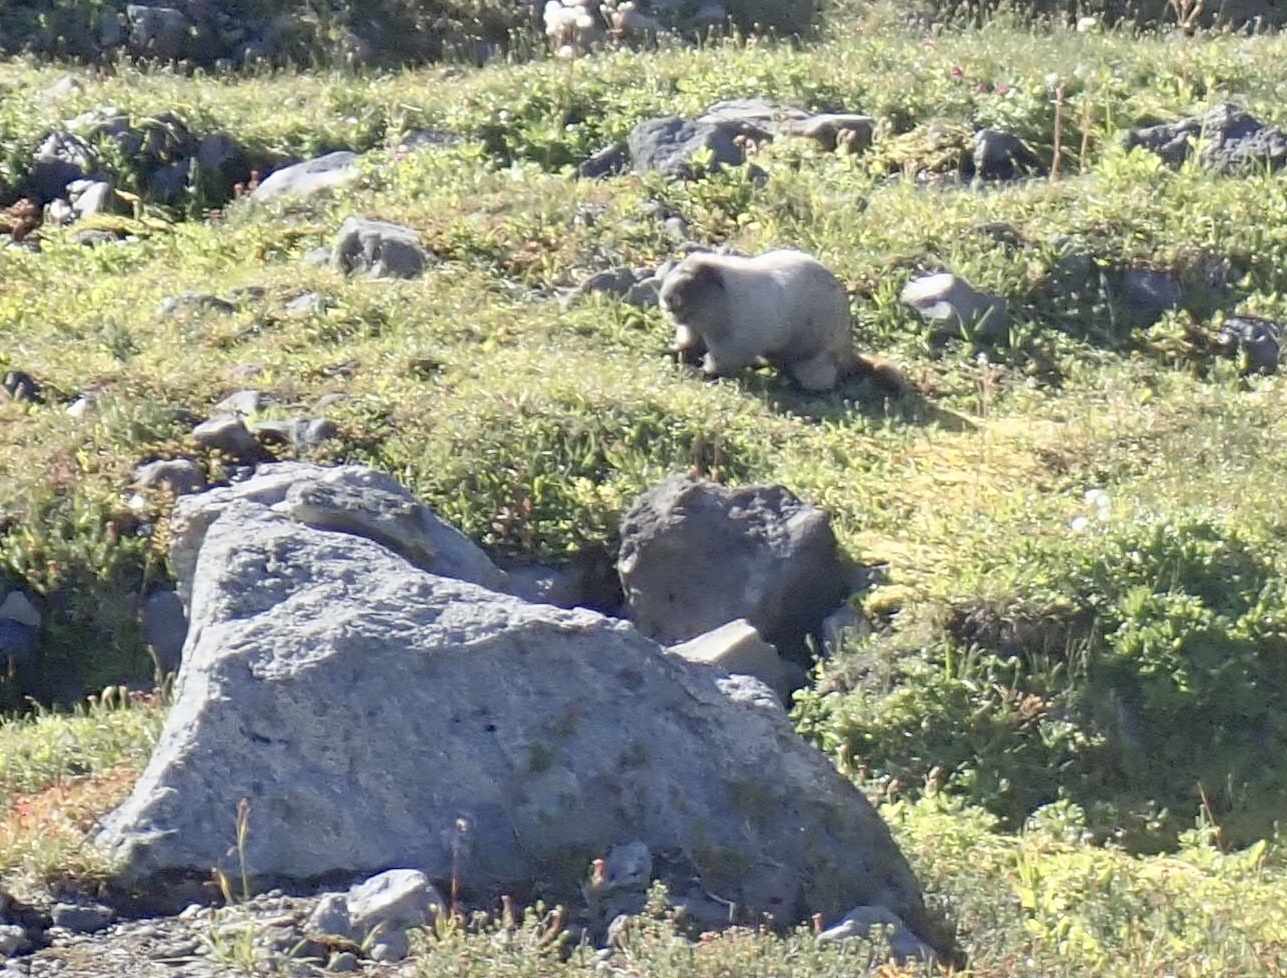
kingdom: Animalia
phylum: Chordata
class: Mammalia
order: Rodentia
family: Sciuridae
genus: Marmota
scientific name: Marmota caligata
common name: Hoary marmot
